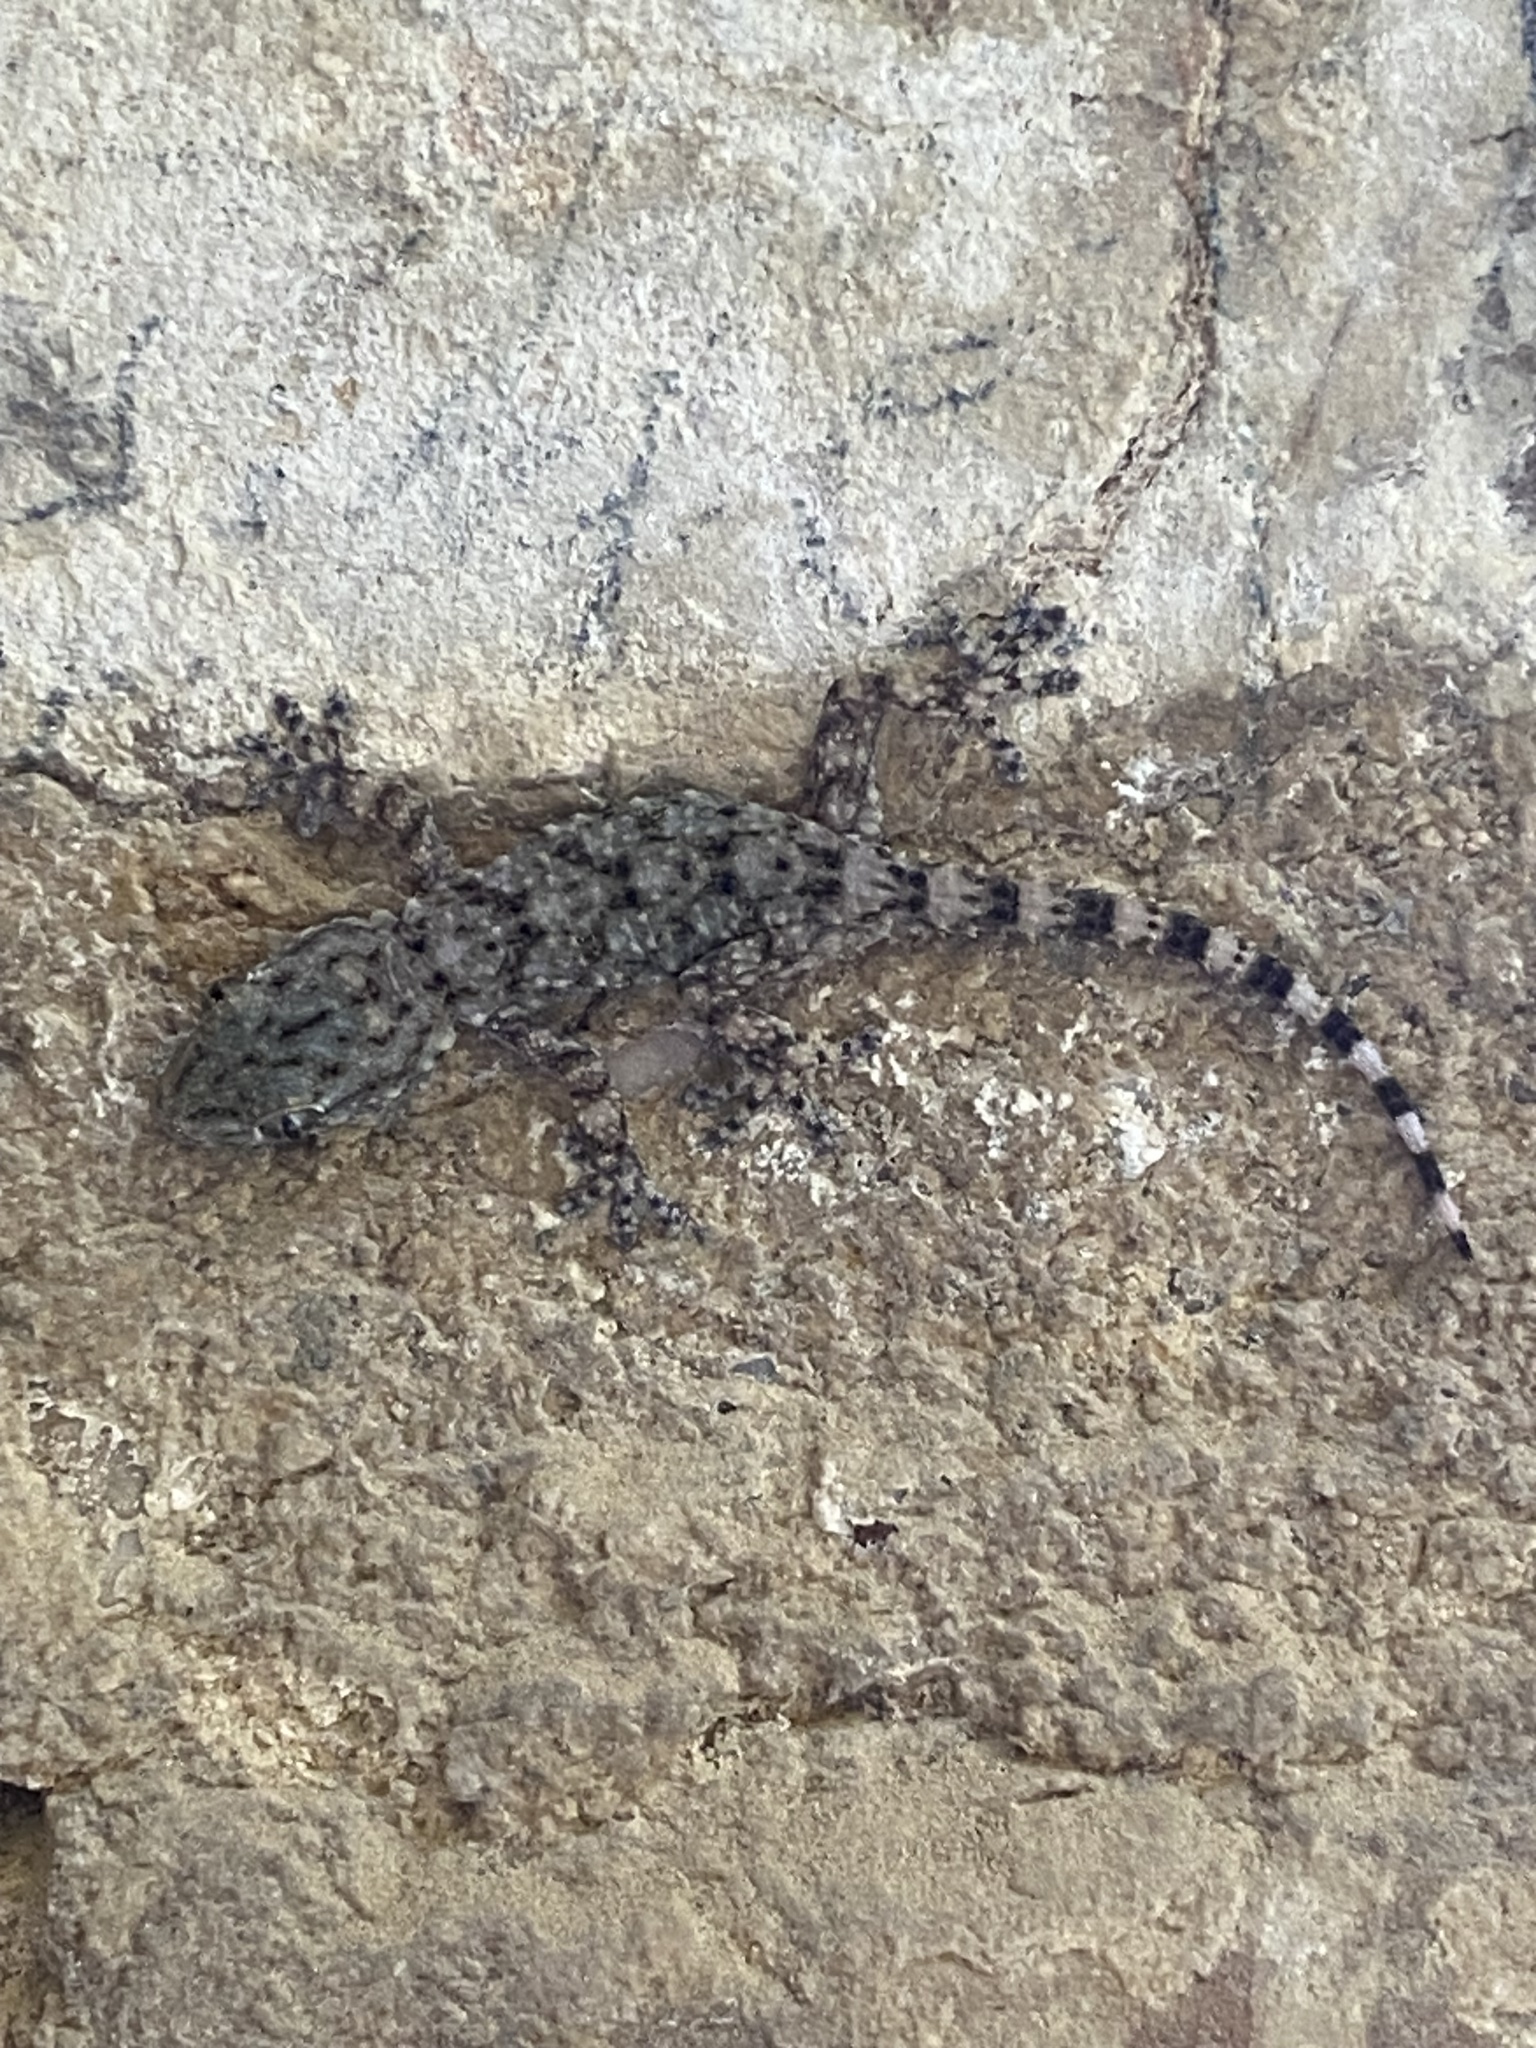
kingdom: Animalia
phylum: Chordata
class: Squamata
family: Phyllodactylidae
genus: Tarentola
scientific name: Tarentola mauritanica
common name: Moorish gecko
